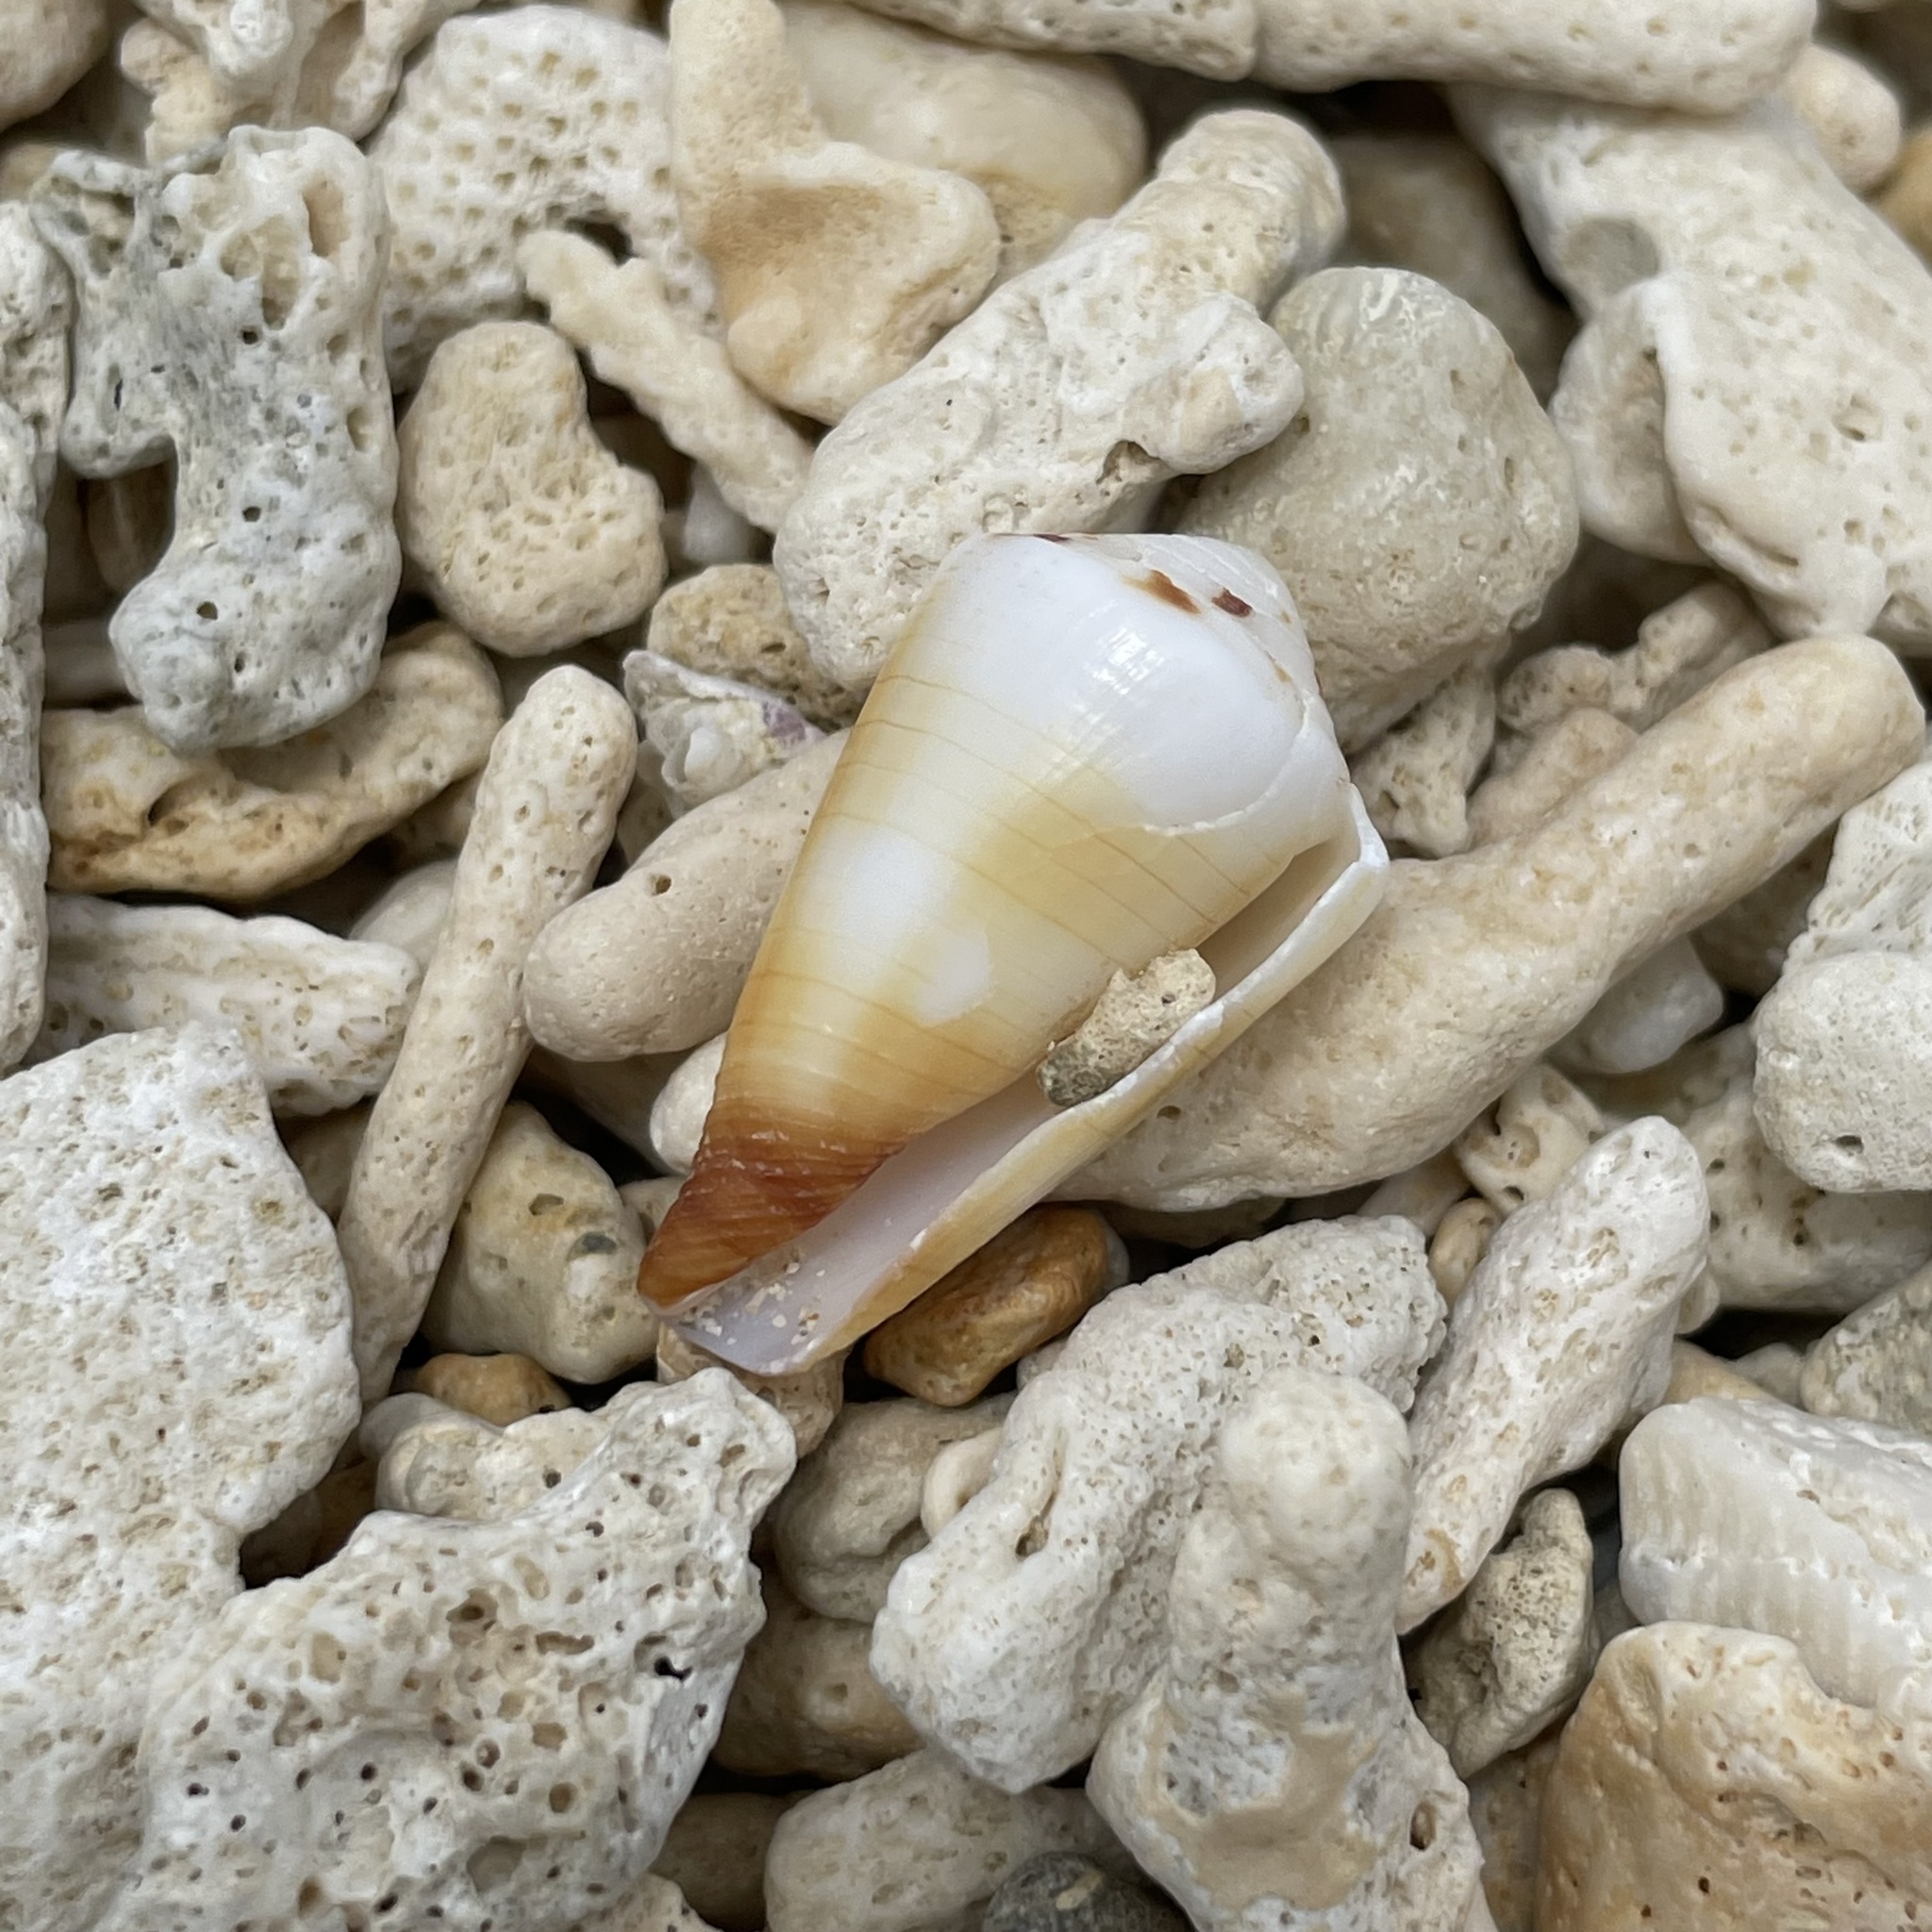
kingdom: Animalia
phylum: Mollusca
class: Gastropoda
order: Neogastropoda
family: Conidae
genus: Conus
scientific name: Conus ferrugineus
